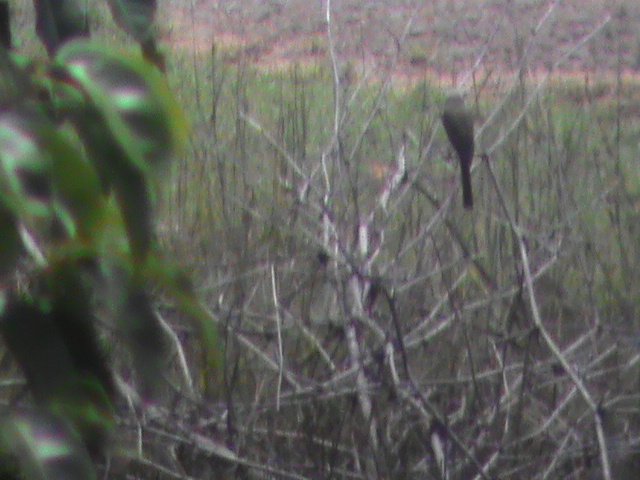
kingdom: Animalia
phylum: Chordata
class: Aves
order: Passeriformes
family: Laniidae
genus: Lanius
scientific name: Lanius schach
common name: Long-tailed shrike
